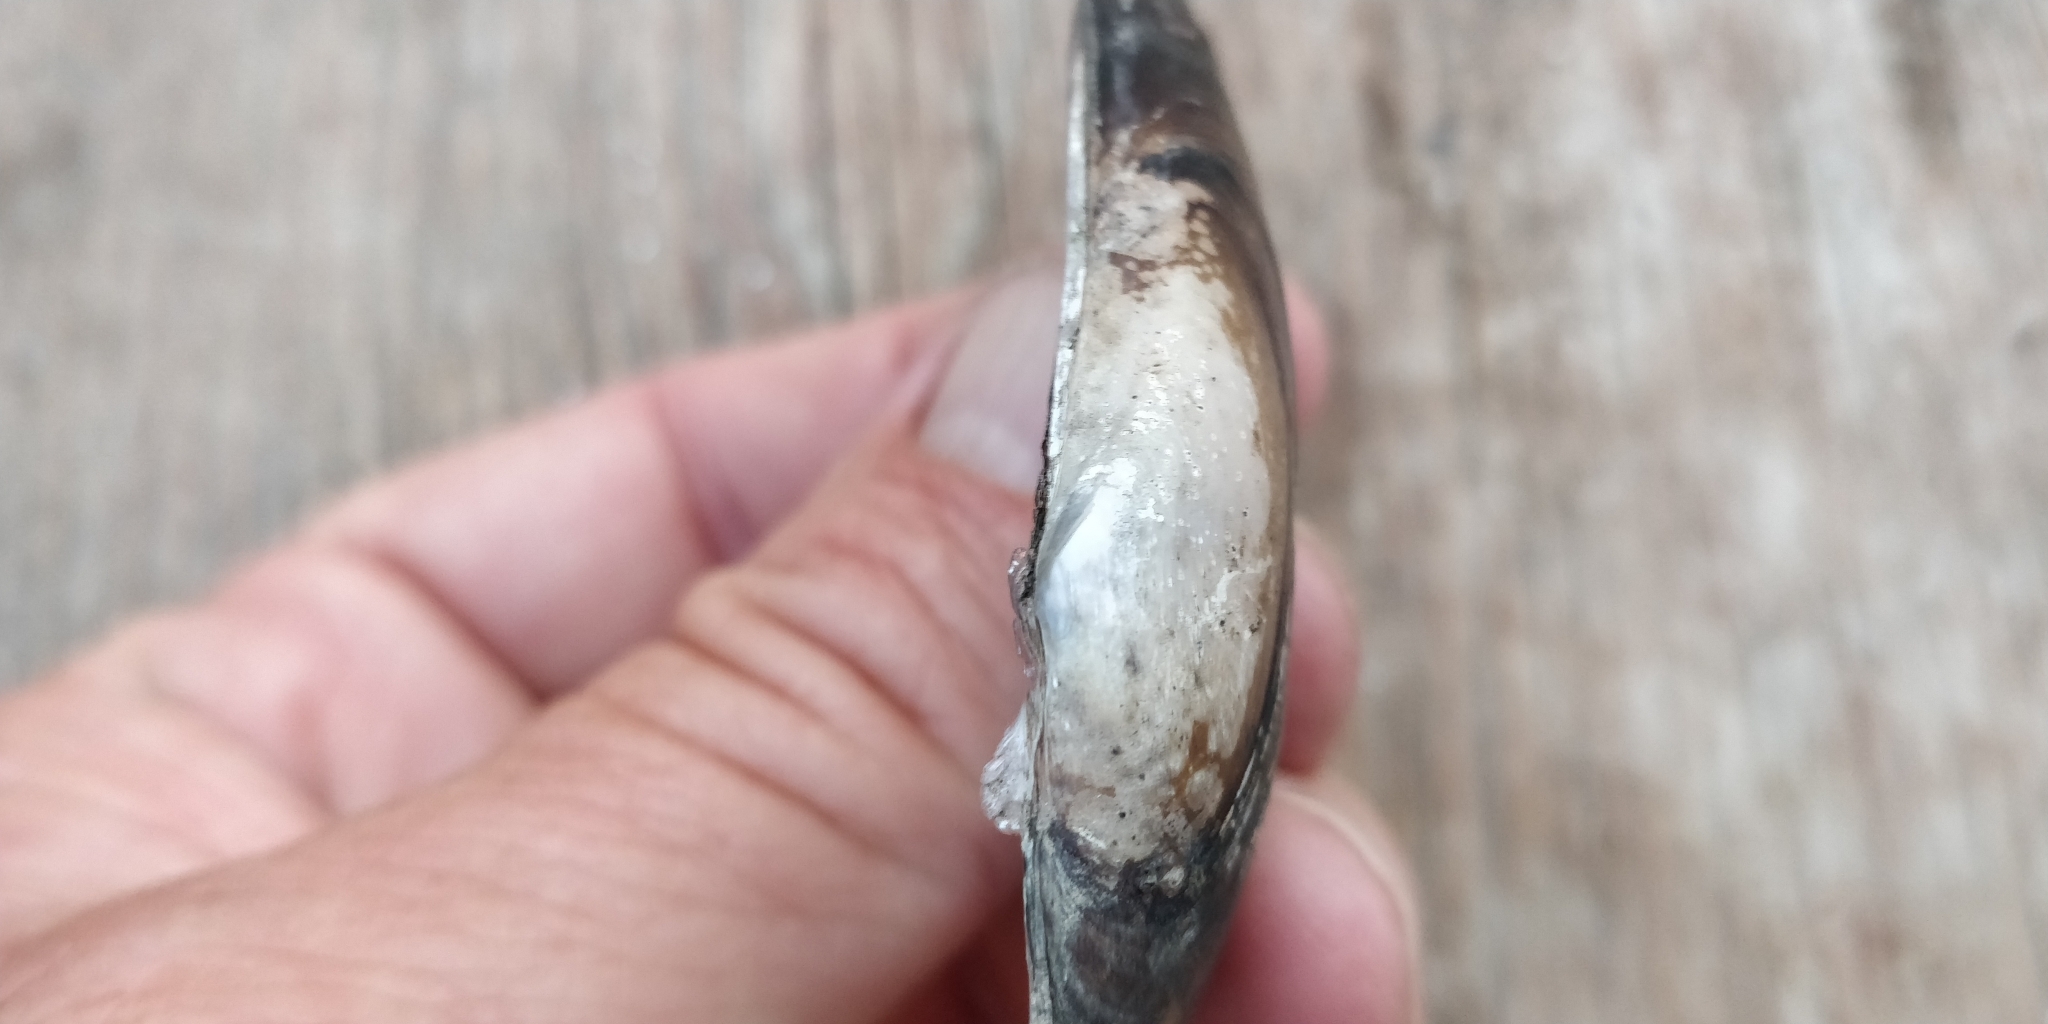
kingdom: Animalia
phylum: Mollusca
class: Bivalvia
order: Unionida
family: Unionidae
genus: Ligumia
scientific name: Ligumia recta
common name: Black sandshell
